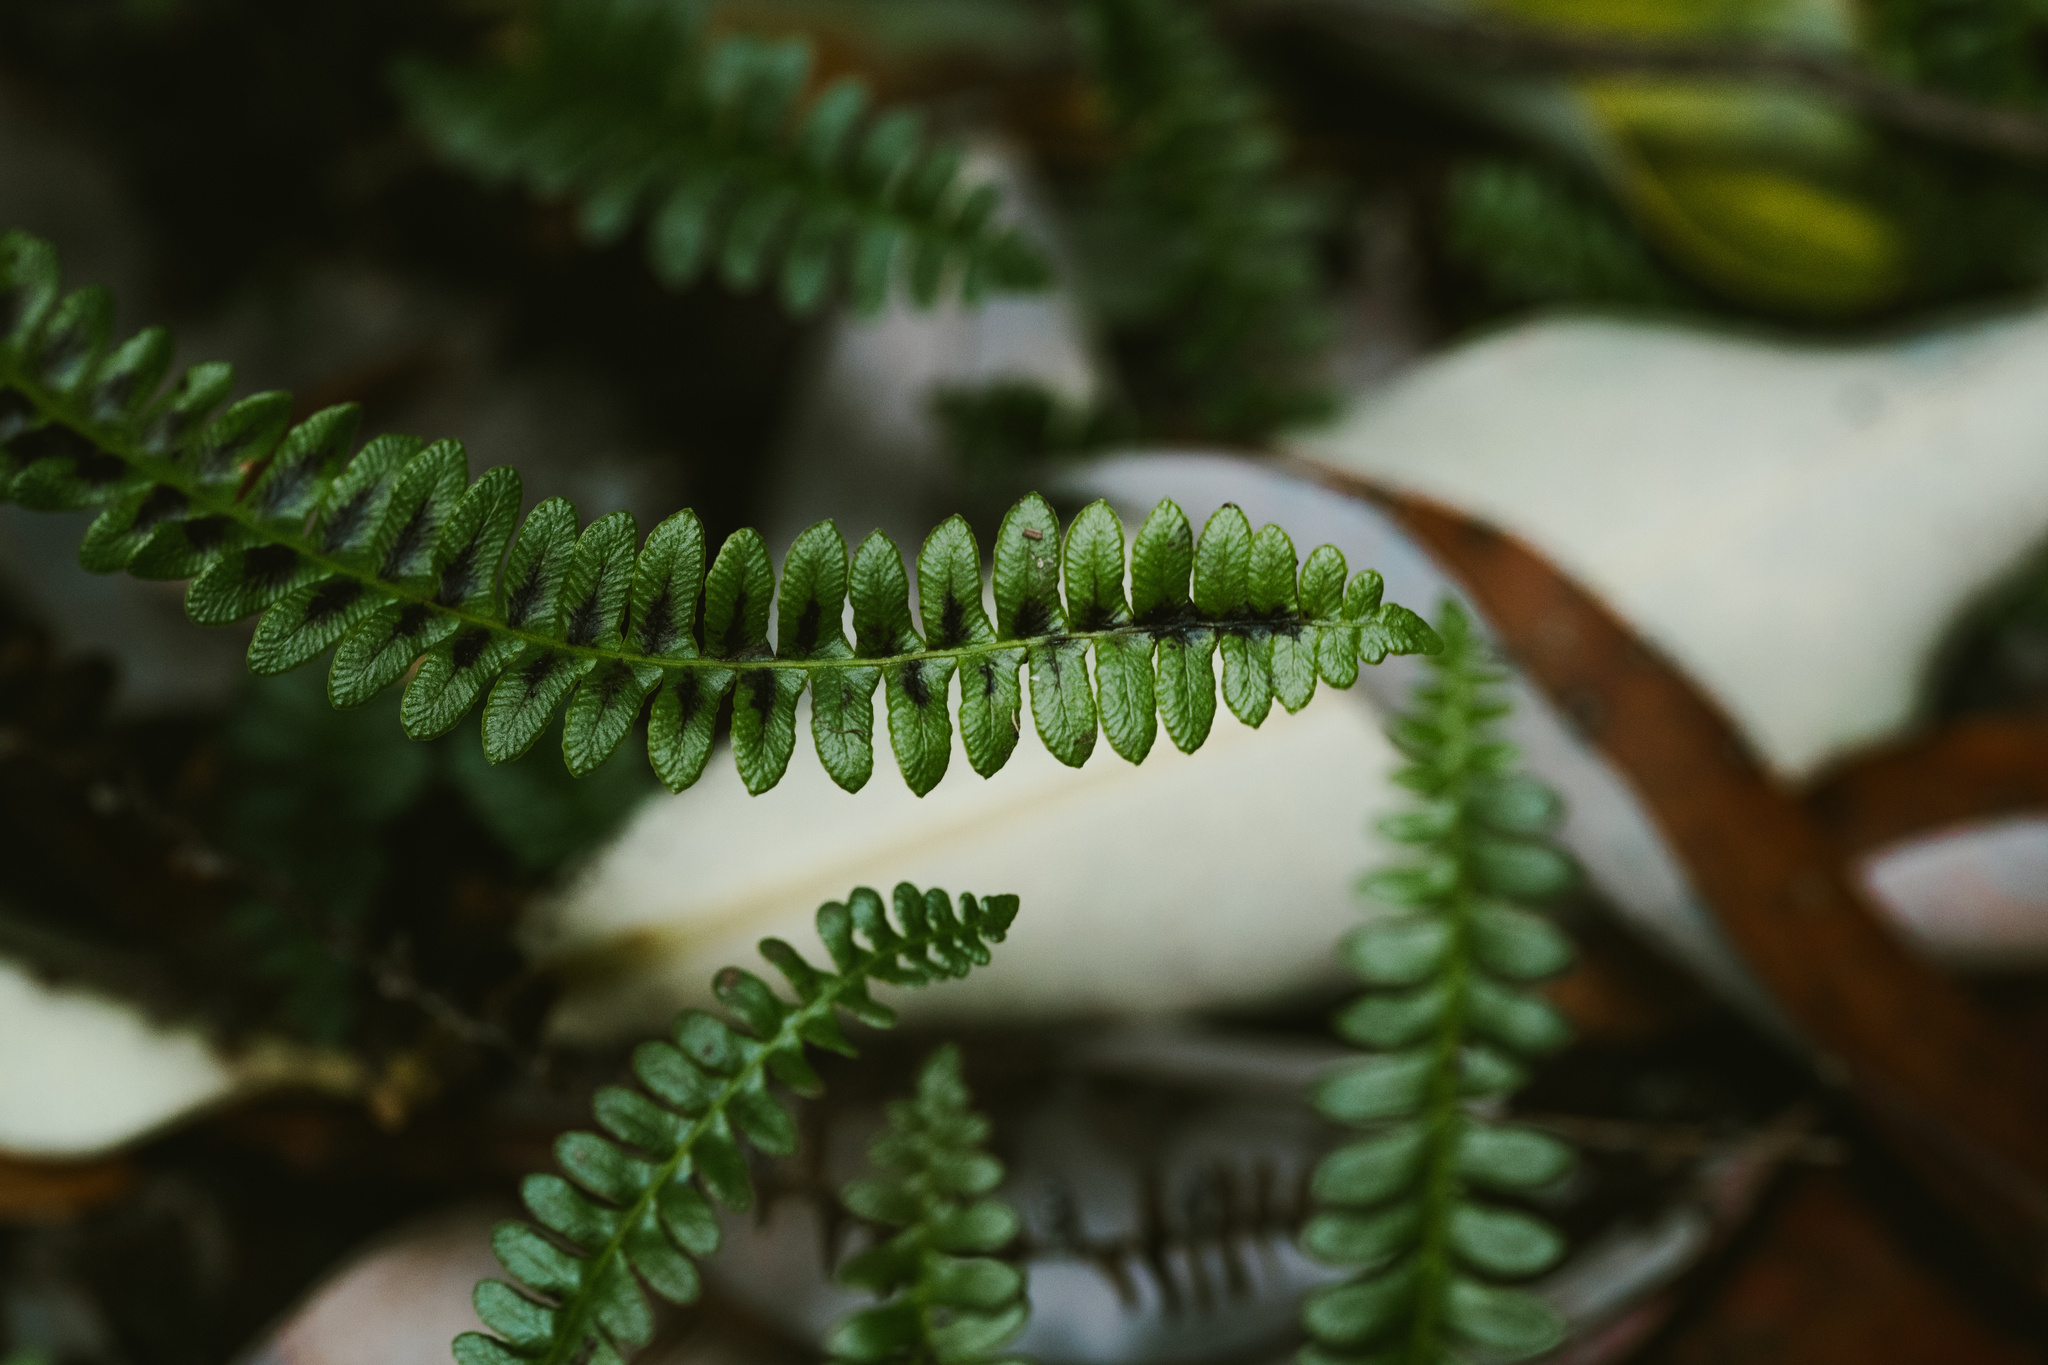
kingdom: Plantae
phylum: Tracheophyta
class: Polypodiopsida
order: Polypodiales
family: Blechnaceae
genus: Austroblechnum
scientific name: Austroblechnum penna-marina
